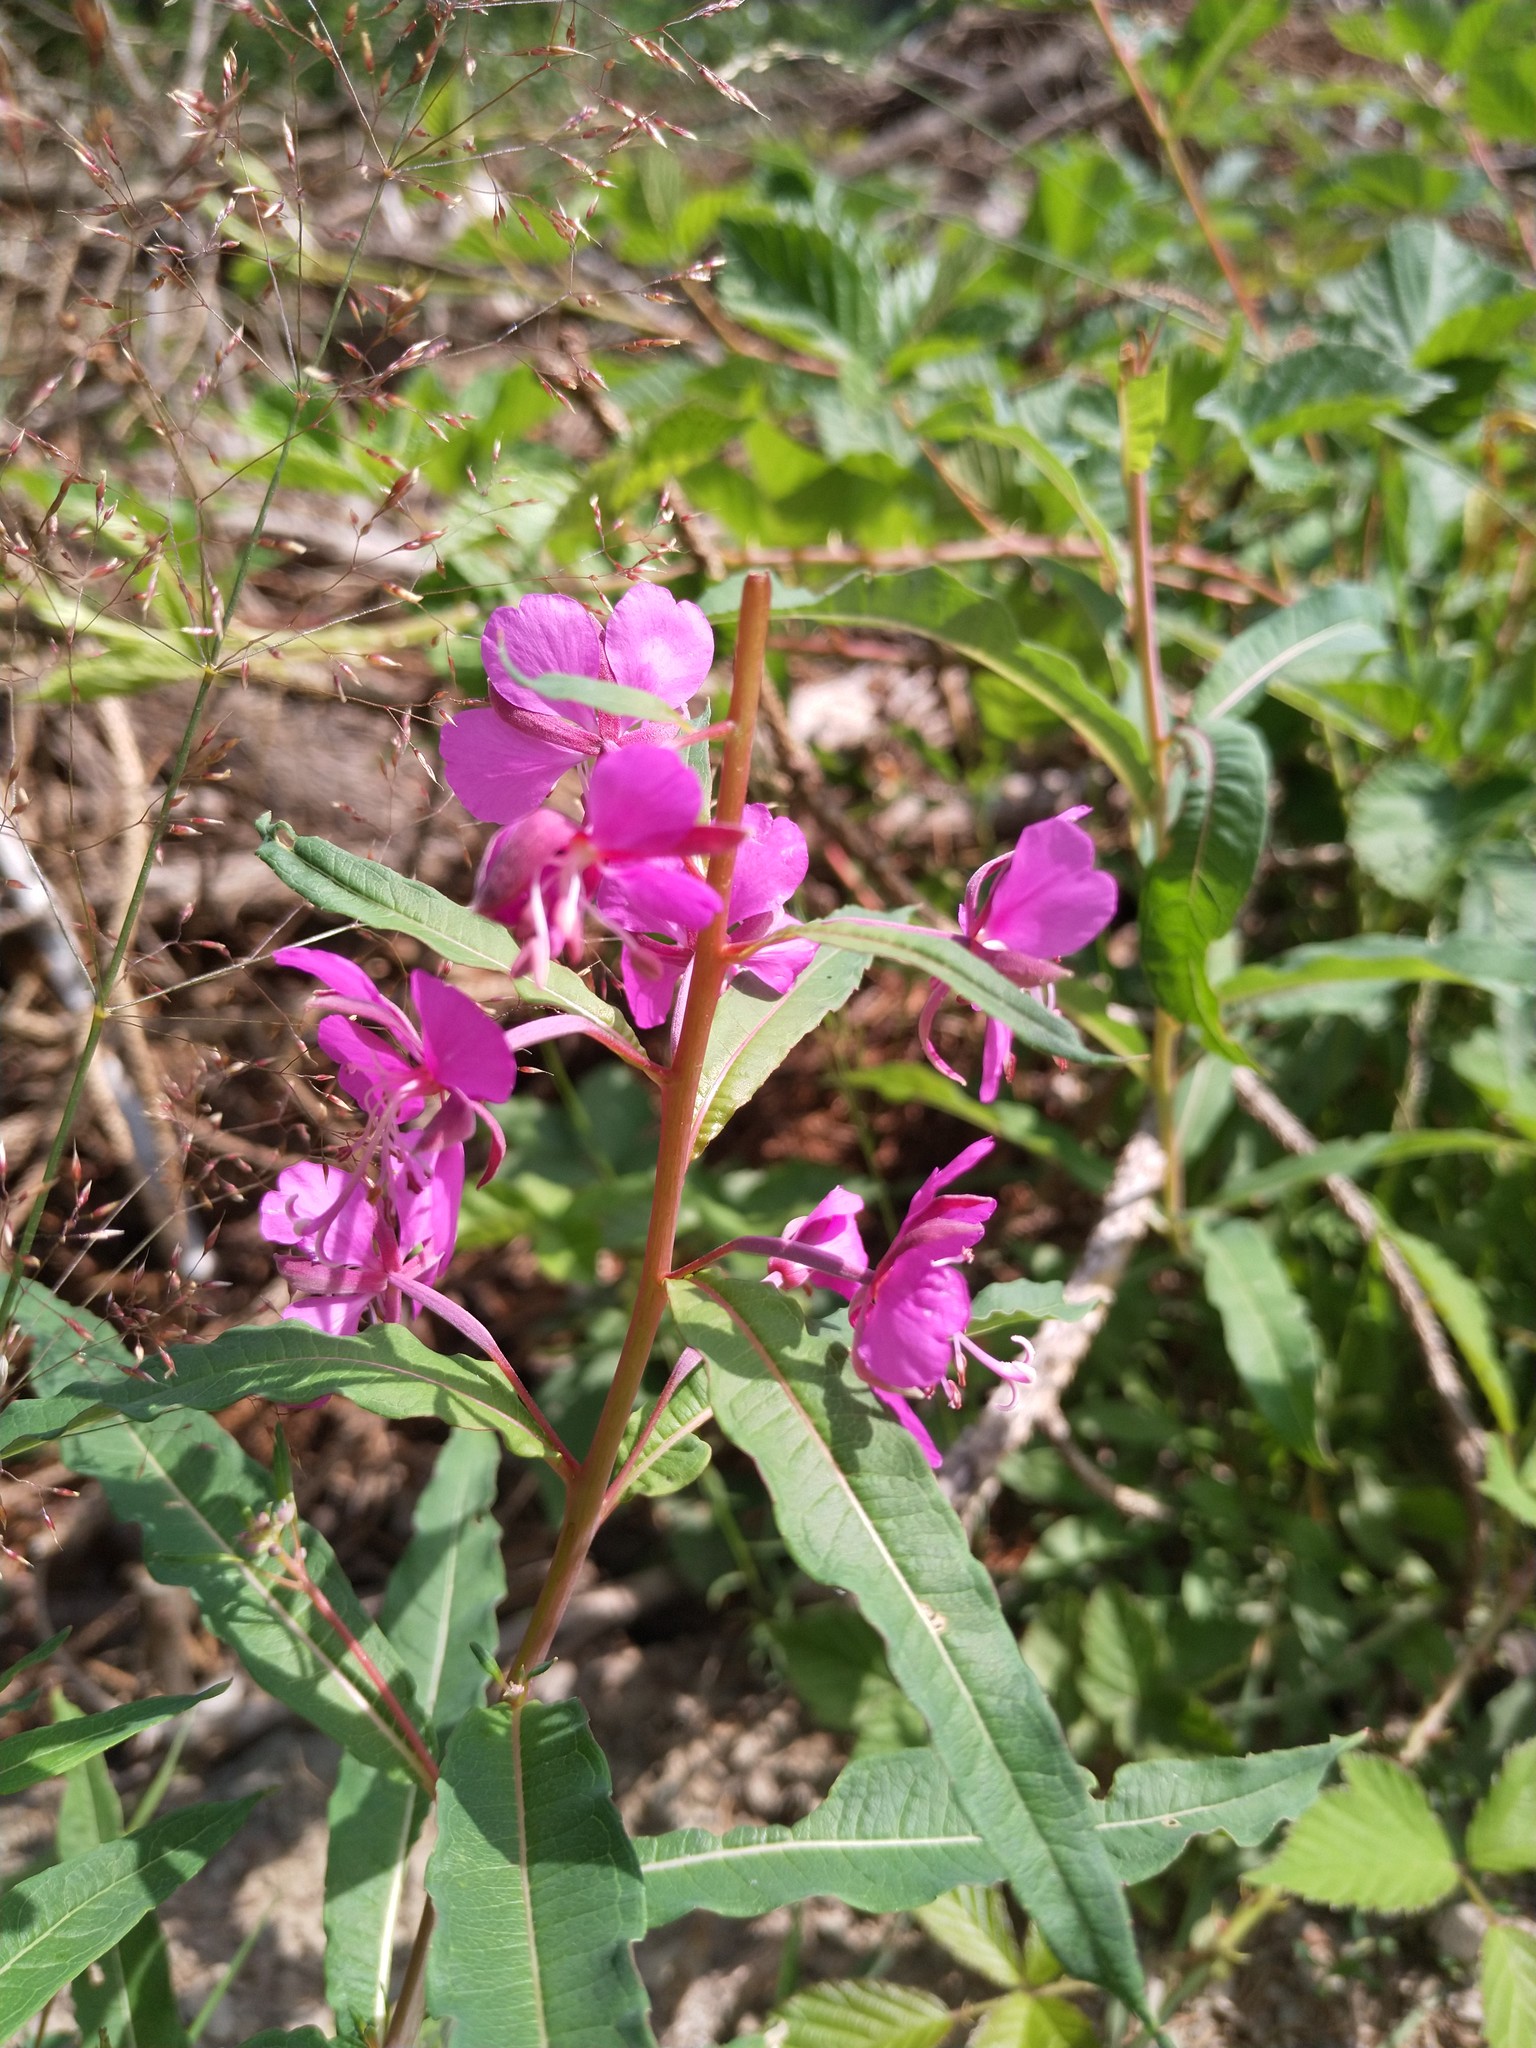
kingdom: Plantae
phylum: Tracheophyta
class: Magnoliopsida
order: Myrtales
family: Onagraceae
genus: Chamaenerion
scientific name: Chamaenerion angustifolium
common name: Fireweed
